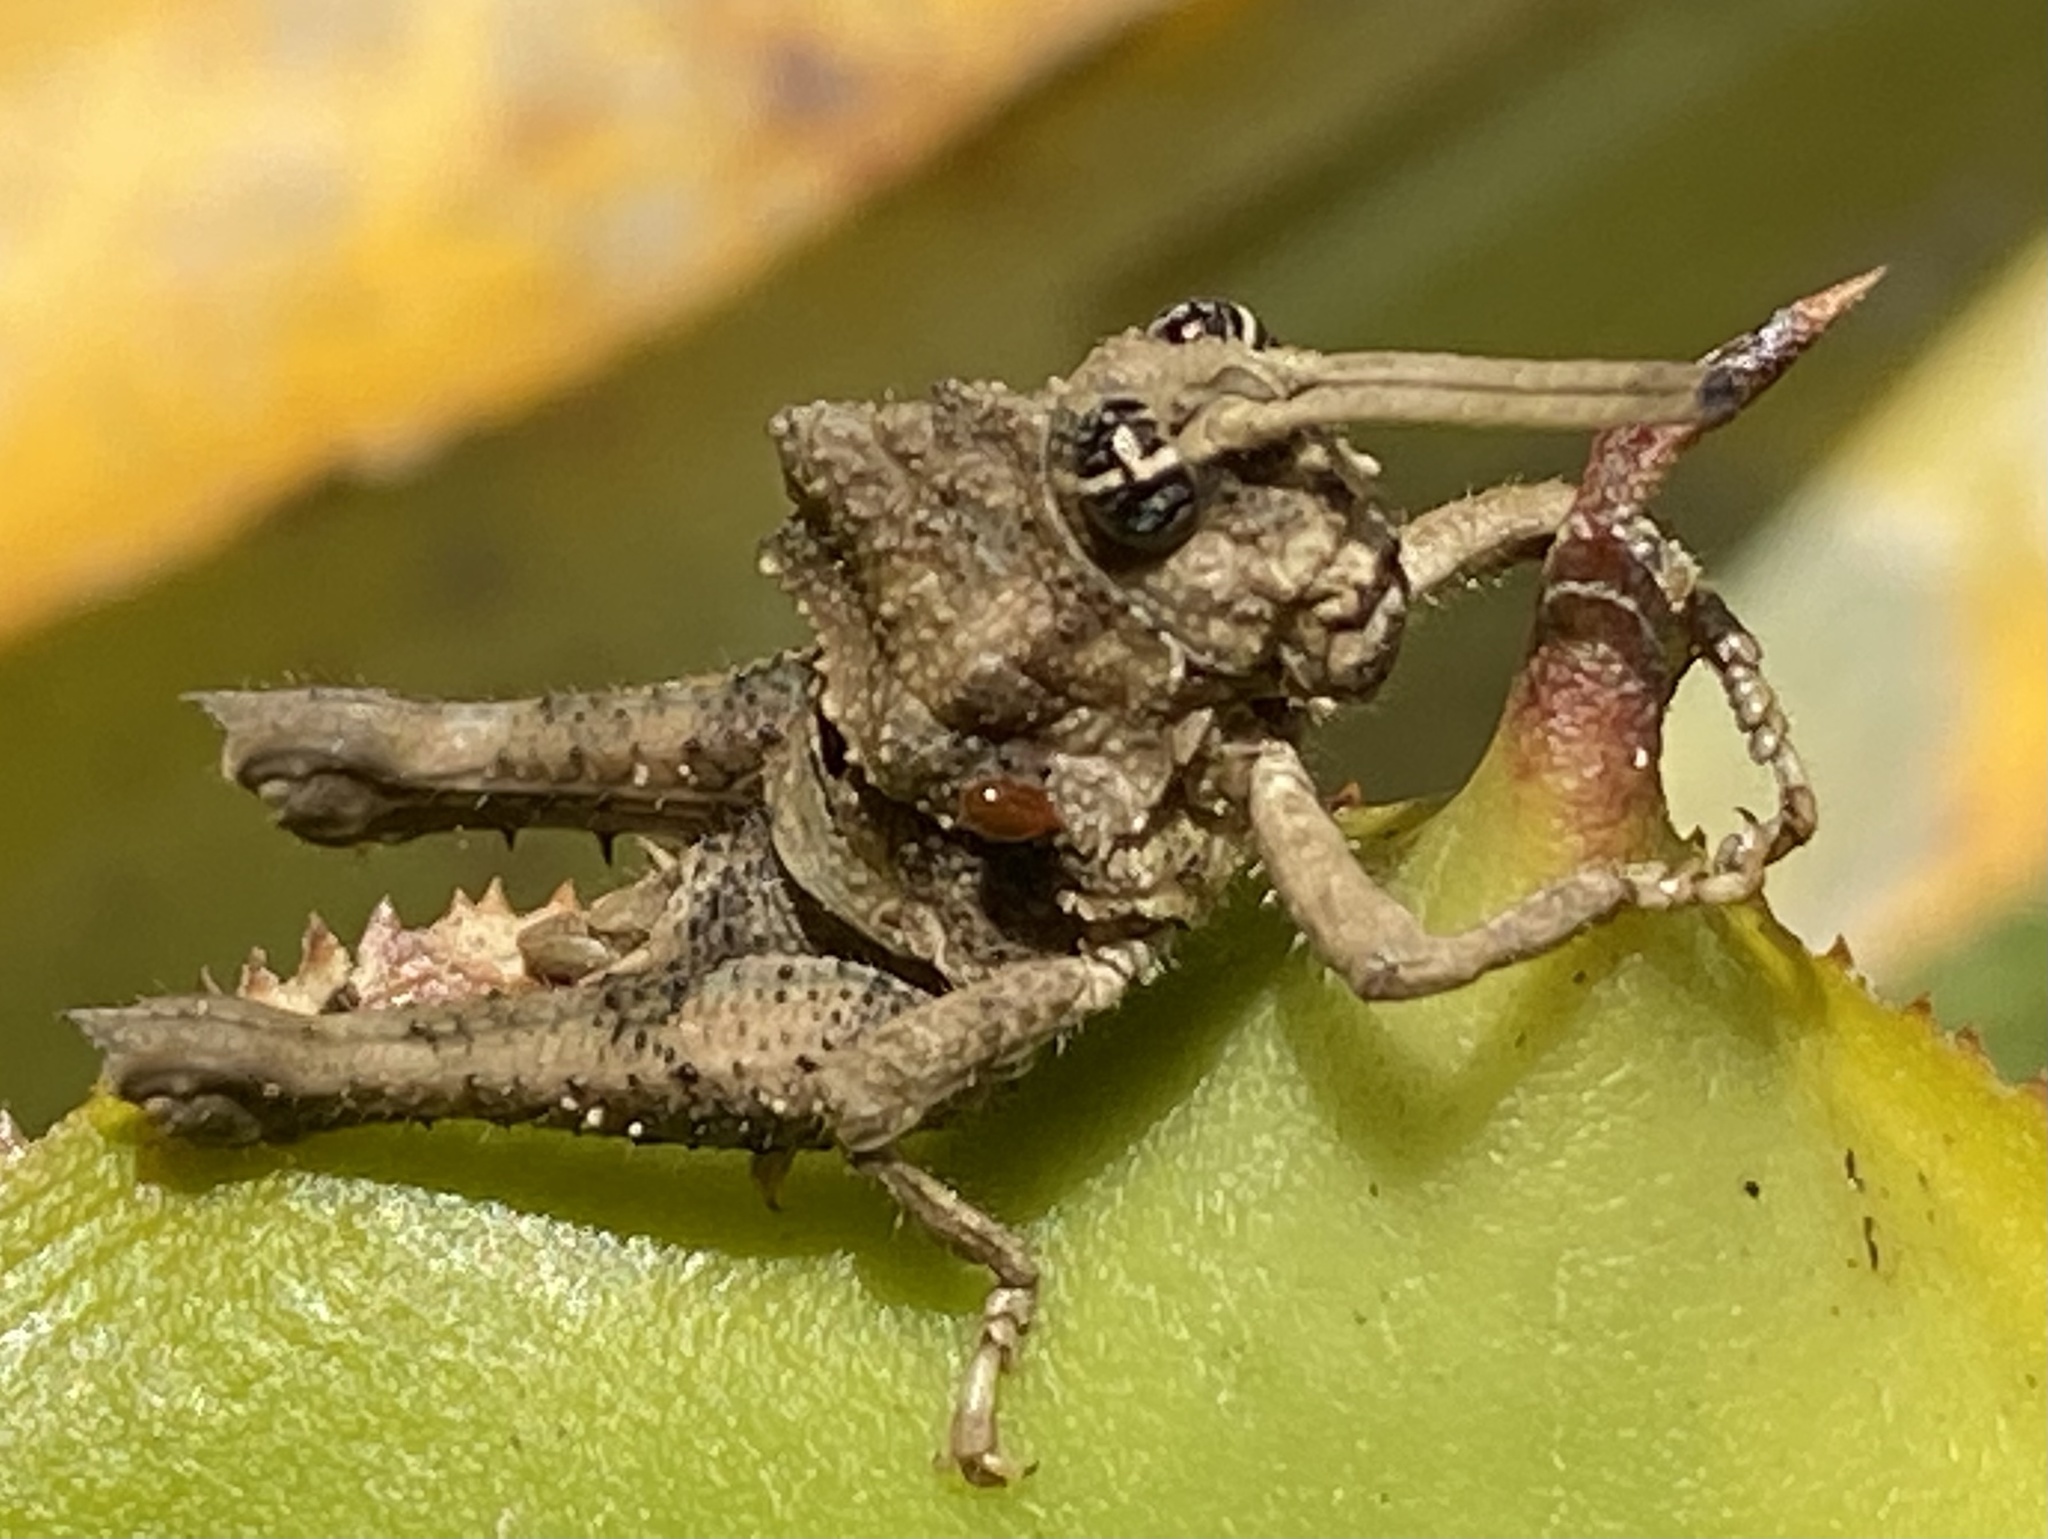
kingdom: Animalia
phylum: Arthropoda
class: Insecta
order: Orthoptera
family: Acrididae
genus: Pycnosarcus
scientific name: Pycnosarcus atavus
